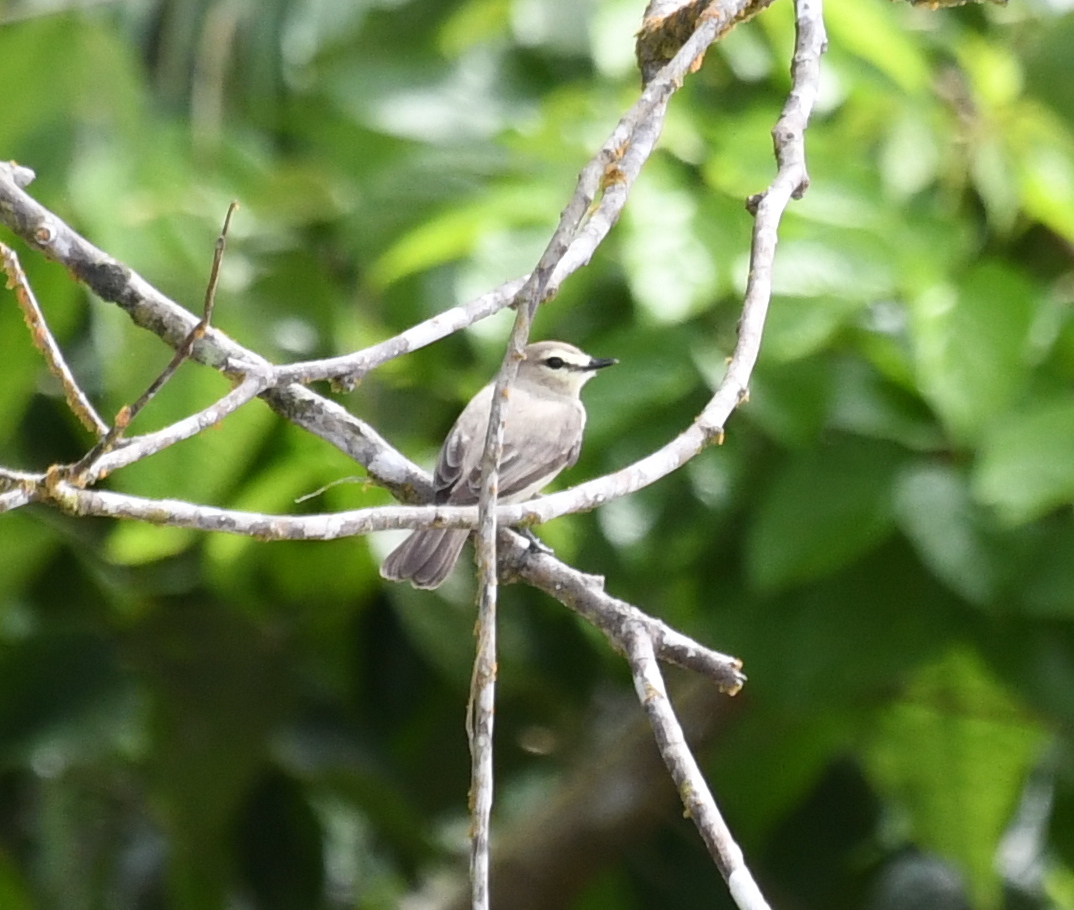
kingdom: Animalia
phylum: Chordata
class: Aves
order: Passeriformes
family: Tyrannidae
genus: Ochthornis
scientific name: Ochthornis littoralis
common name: Drab water tyrant
